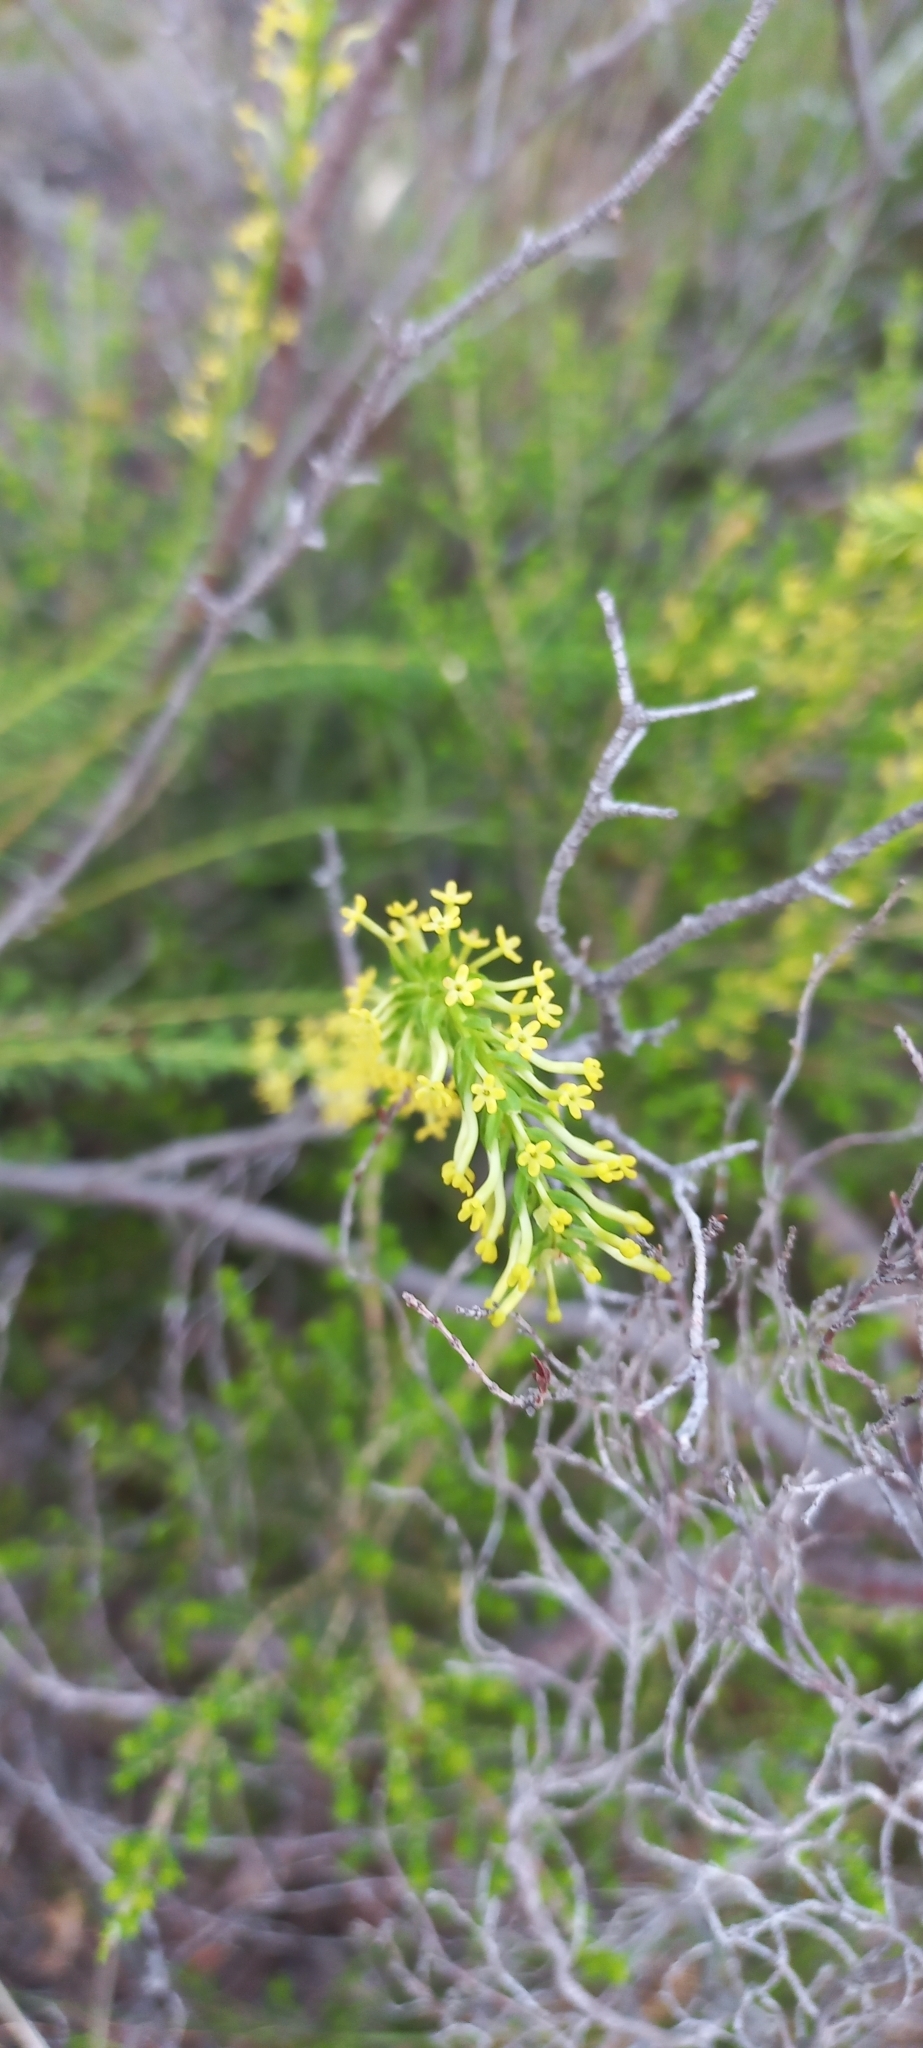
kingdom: Plantae
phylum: Tracheophyta
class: Magnoliopsida
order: Lamiales
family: Scrophulariaceae
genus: Microdon
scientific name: Microdon dubius
